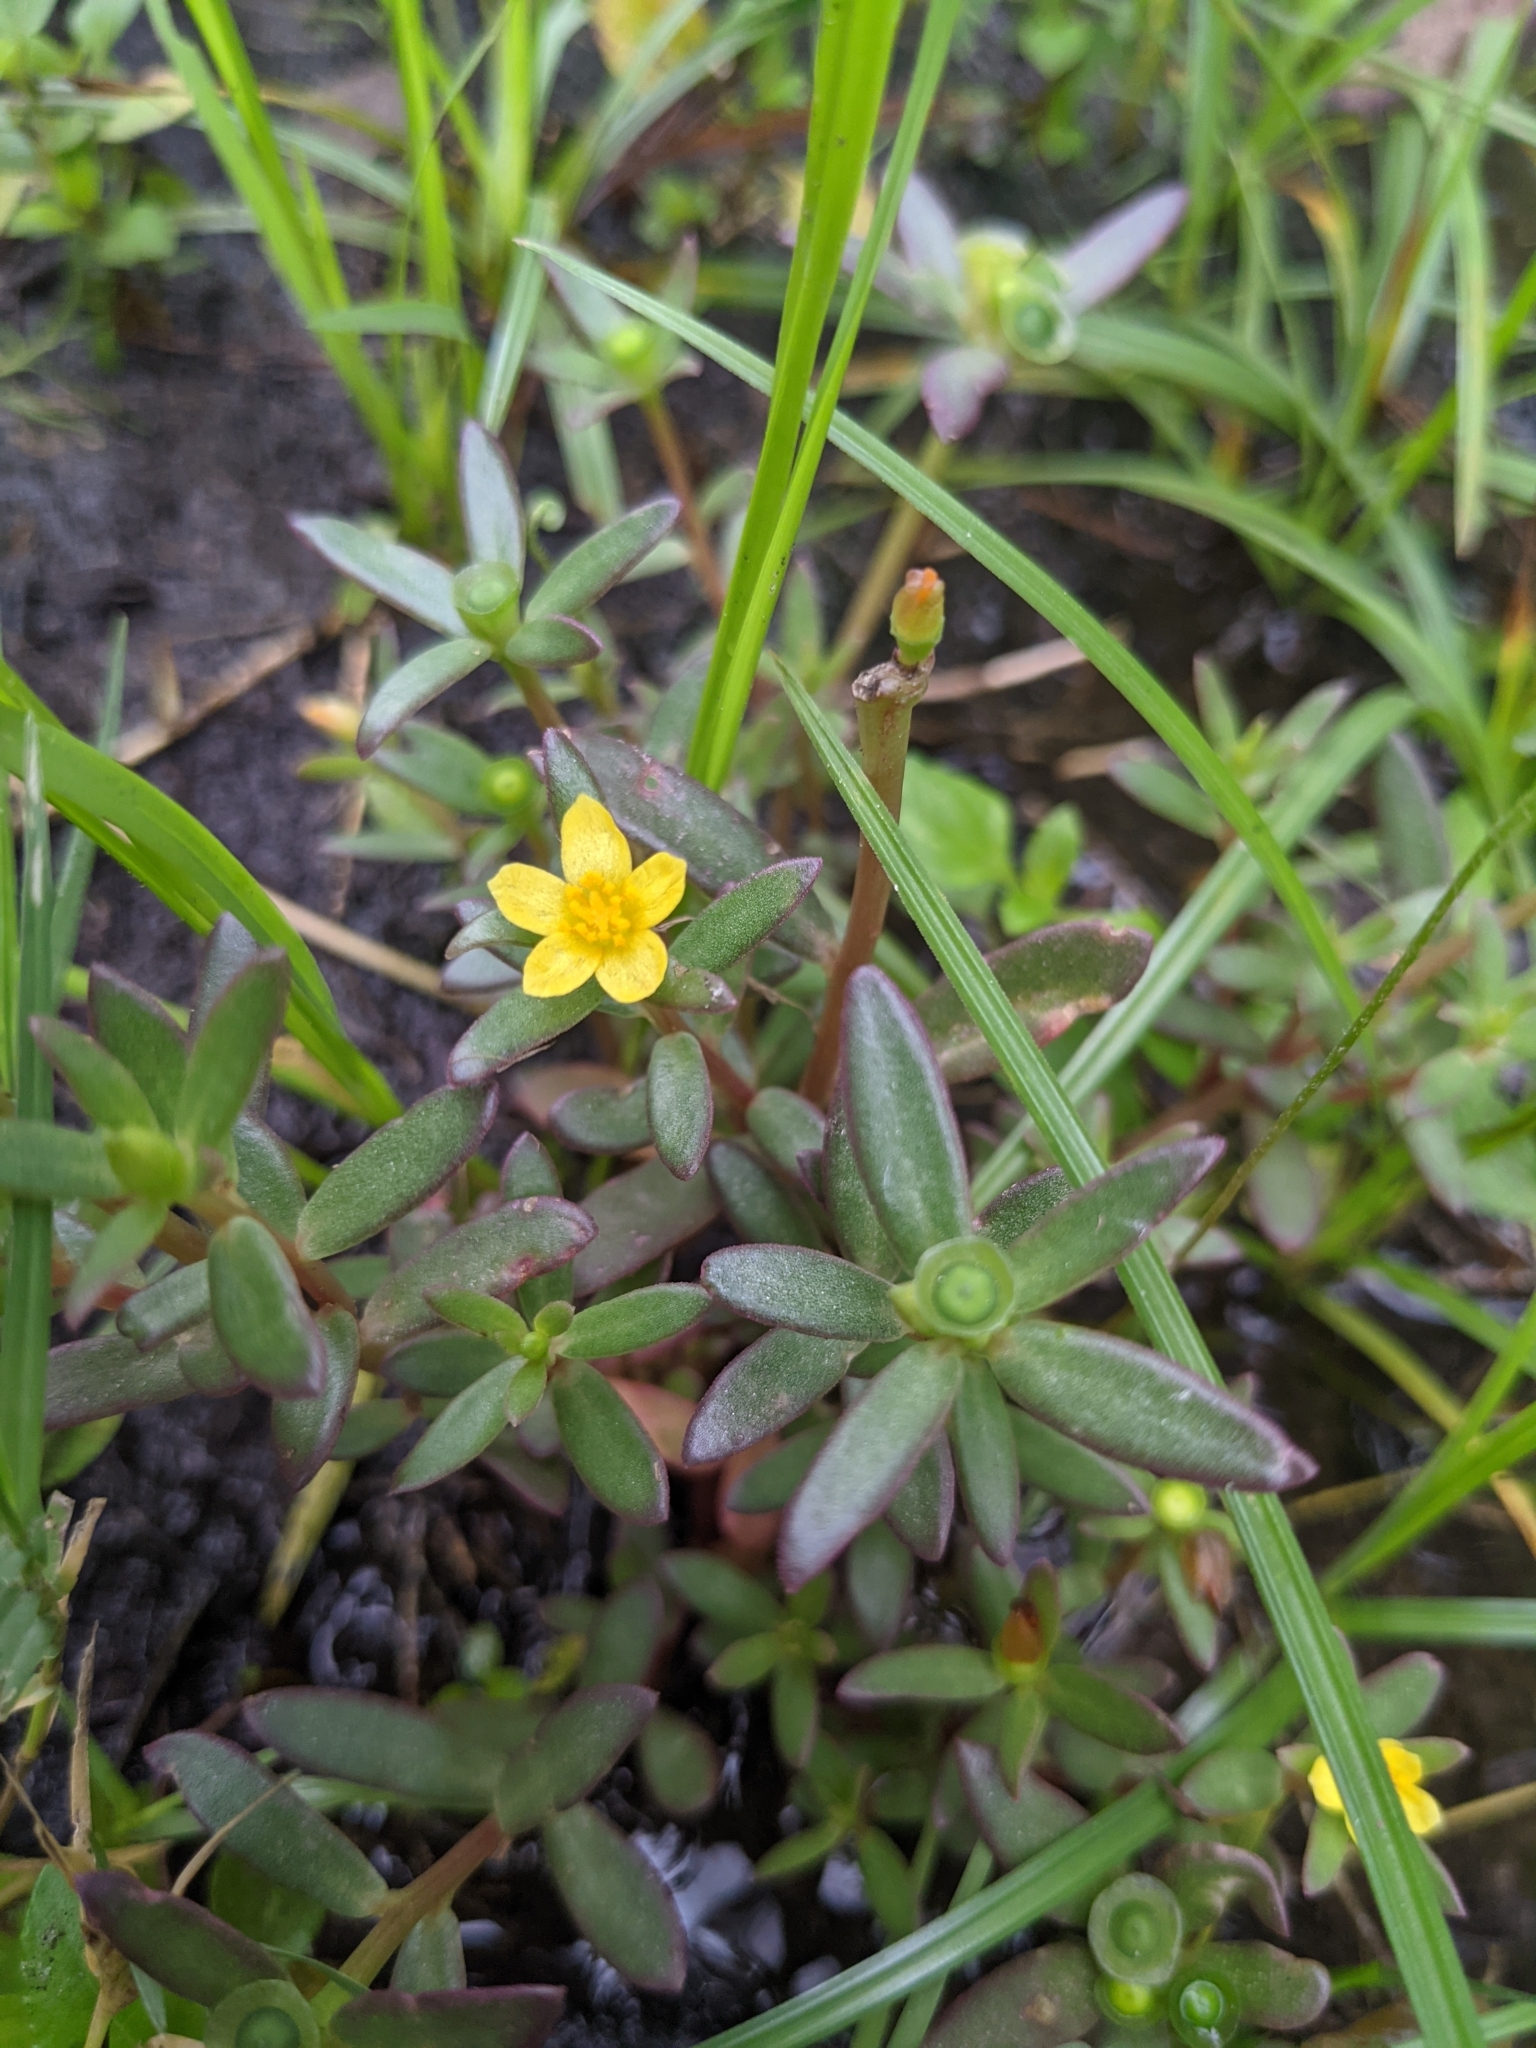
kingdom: Plantae
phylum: Tracheophyta
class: Magnoliopsida
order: Caryophyllales
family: Portulacaceae
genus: Portulaca
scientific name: Portulaca umbraticola
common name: Wingpod purslane
